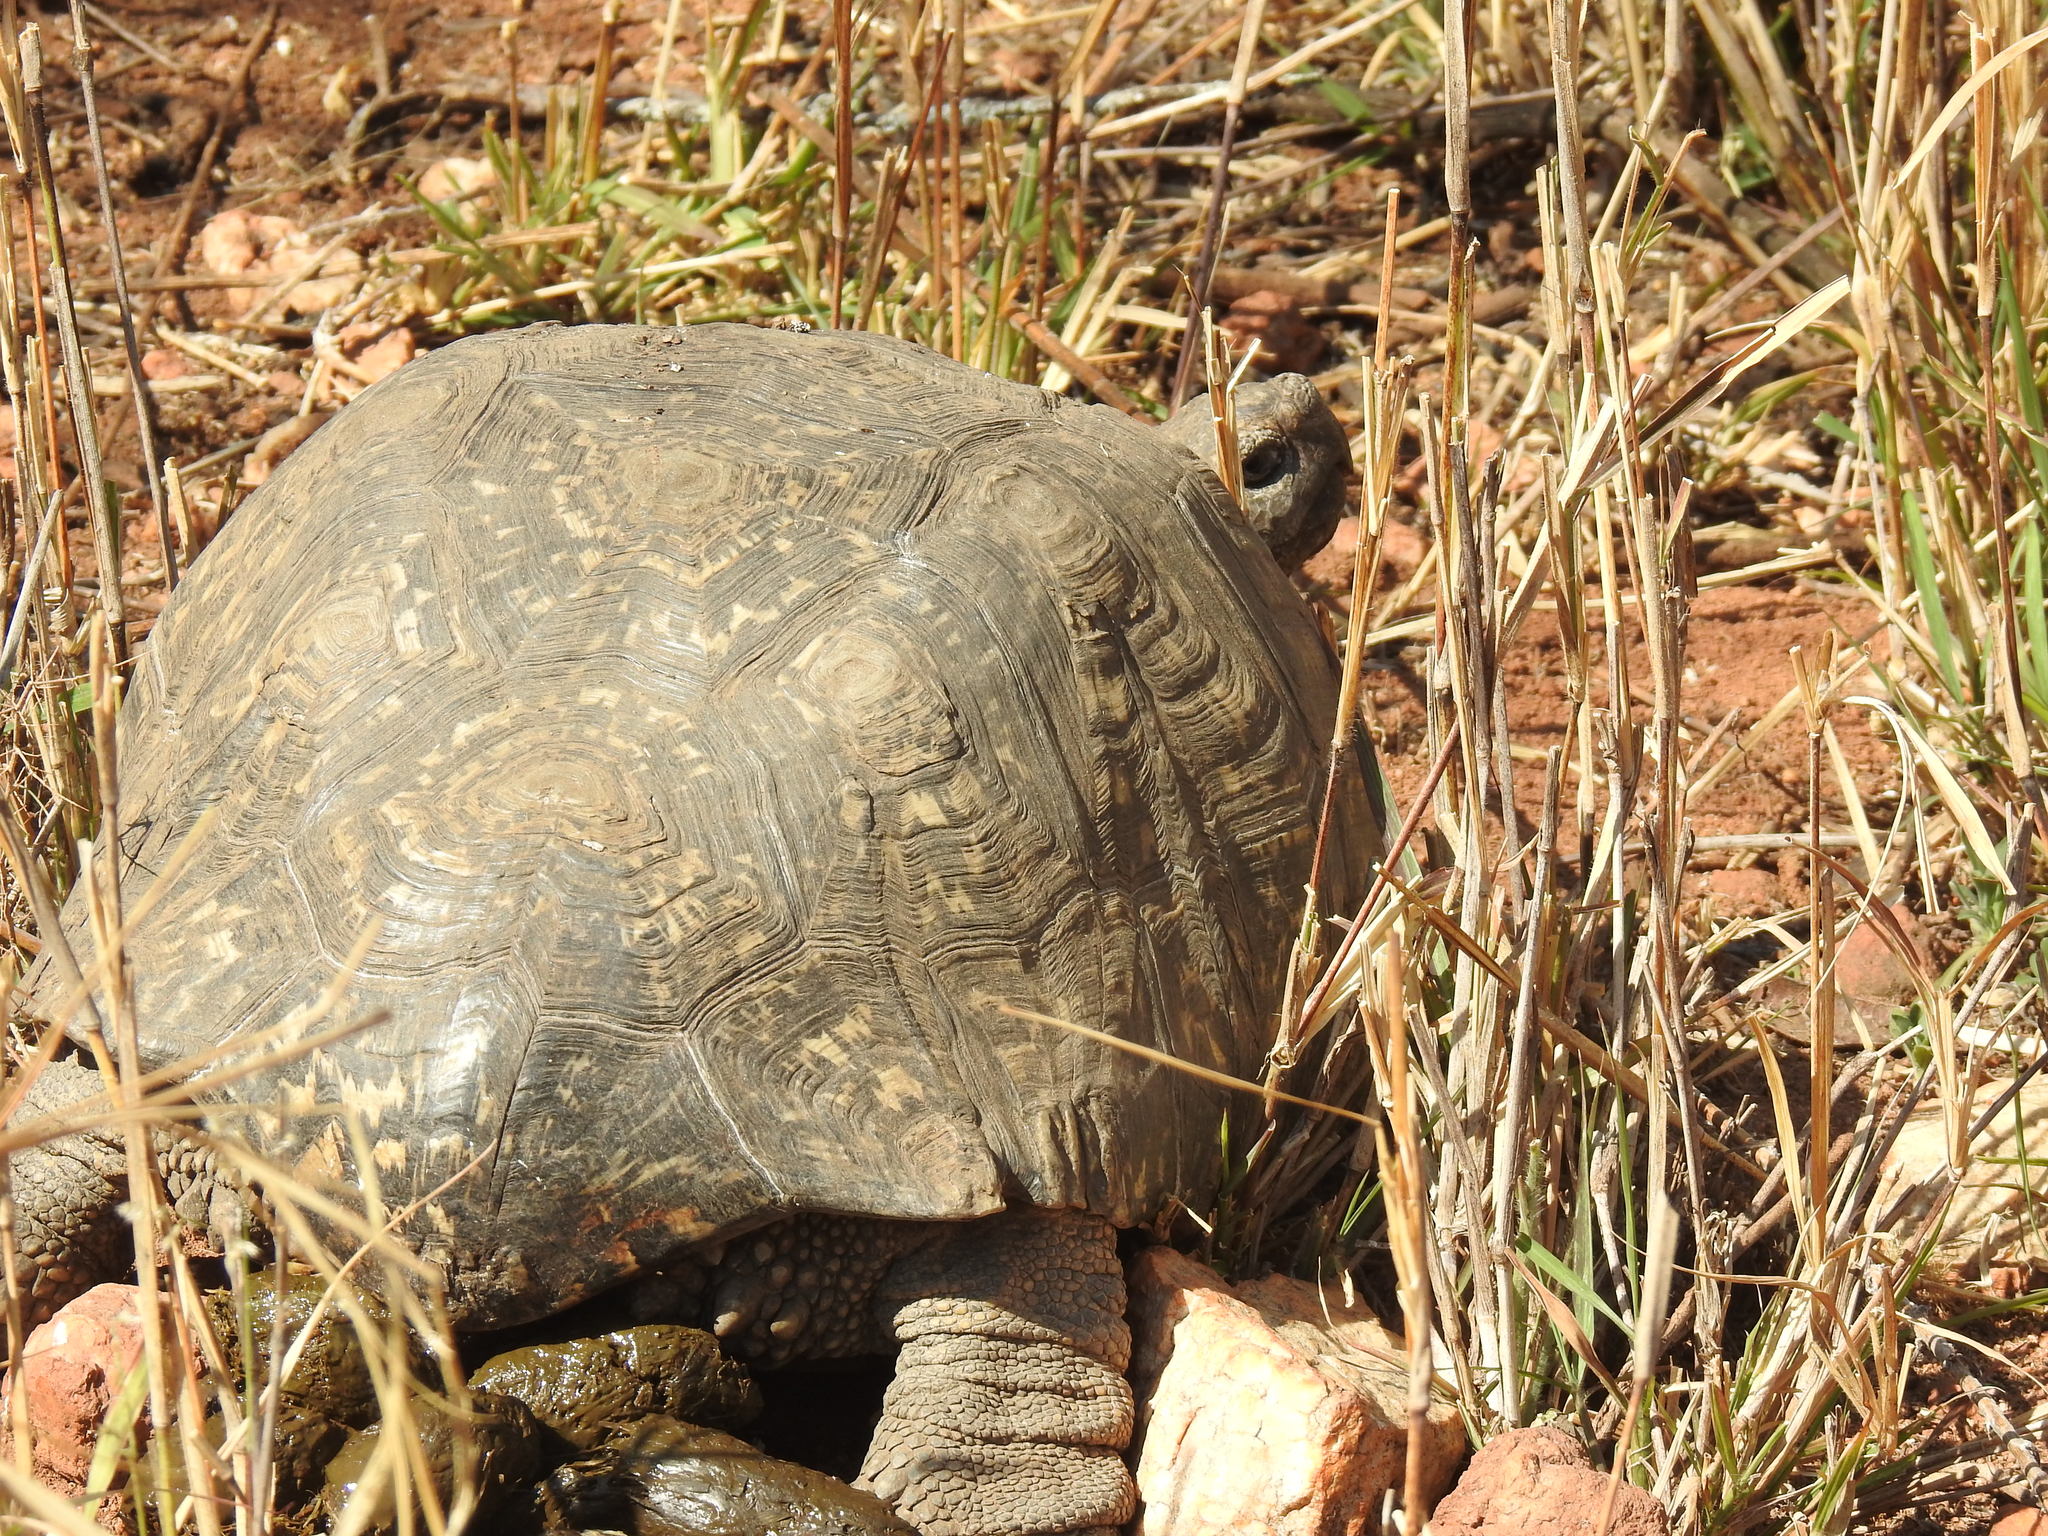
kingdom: Animalia
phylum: Chordata
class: Testudines
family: Testudinidae
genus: Stigmochelys
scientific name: Stigmochelys pardalis
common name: Leopard tortoise
